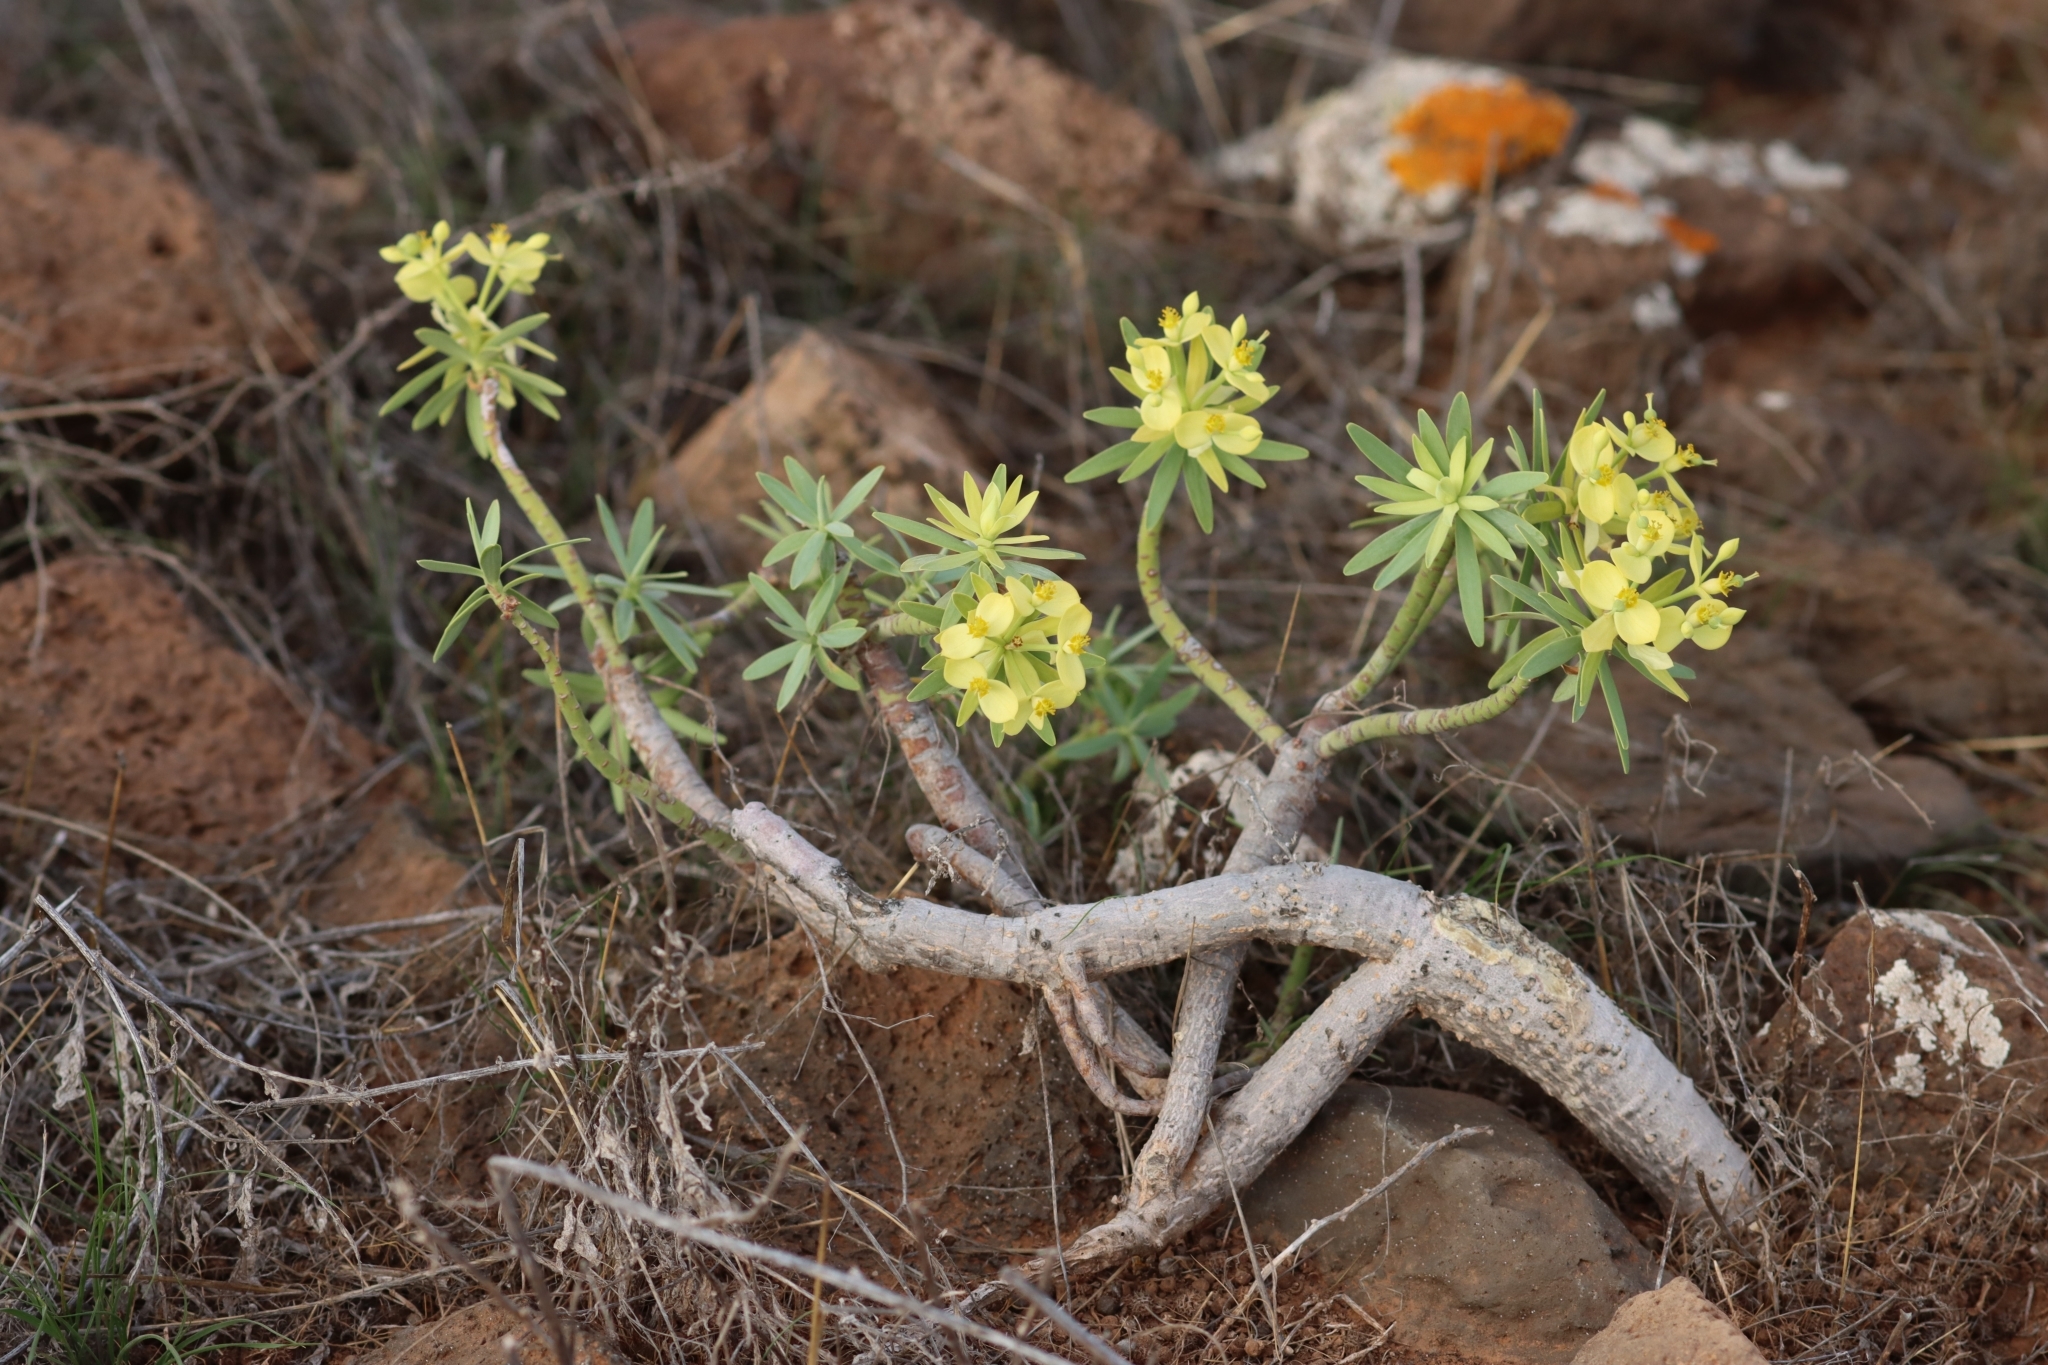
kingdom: Plantae
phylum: Tracheophyta
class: Magnoliopsida
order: Malpighiales
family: Euphorbiaceae
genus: Euphorbia
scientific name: Euphorbia regis-jubae
